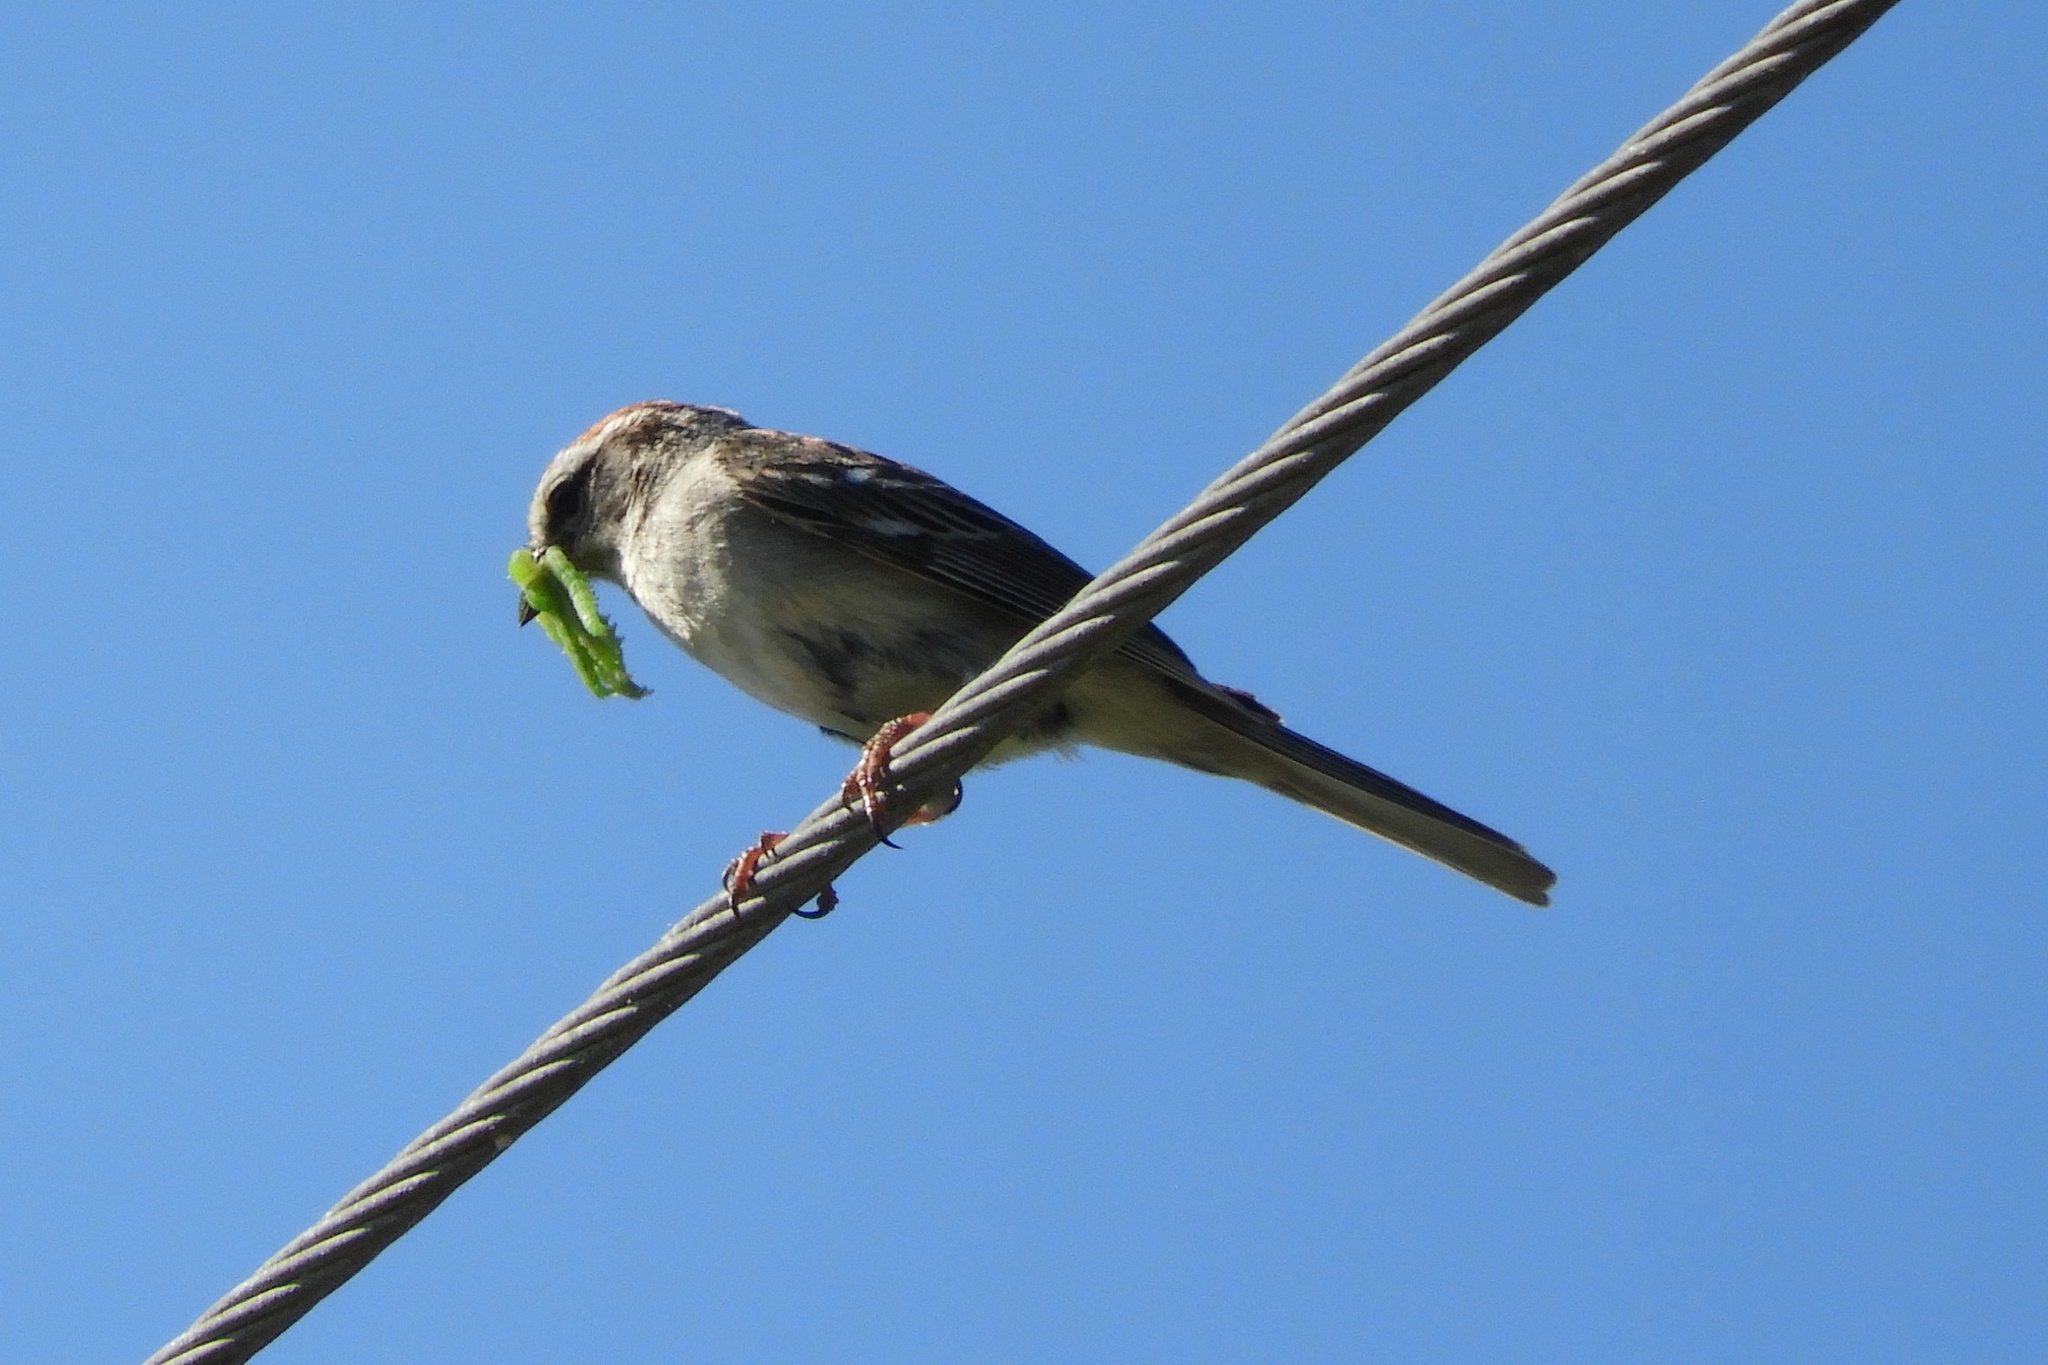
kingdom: Animalia
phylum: Chordata
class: Aves
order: Passeriformes
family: Passerellidae
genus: Spizella
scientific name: Spizella passerina
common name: Chipping sparrow
